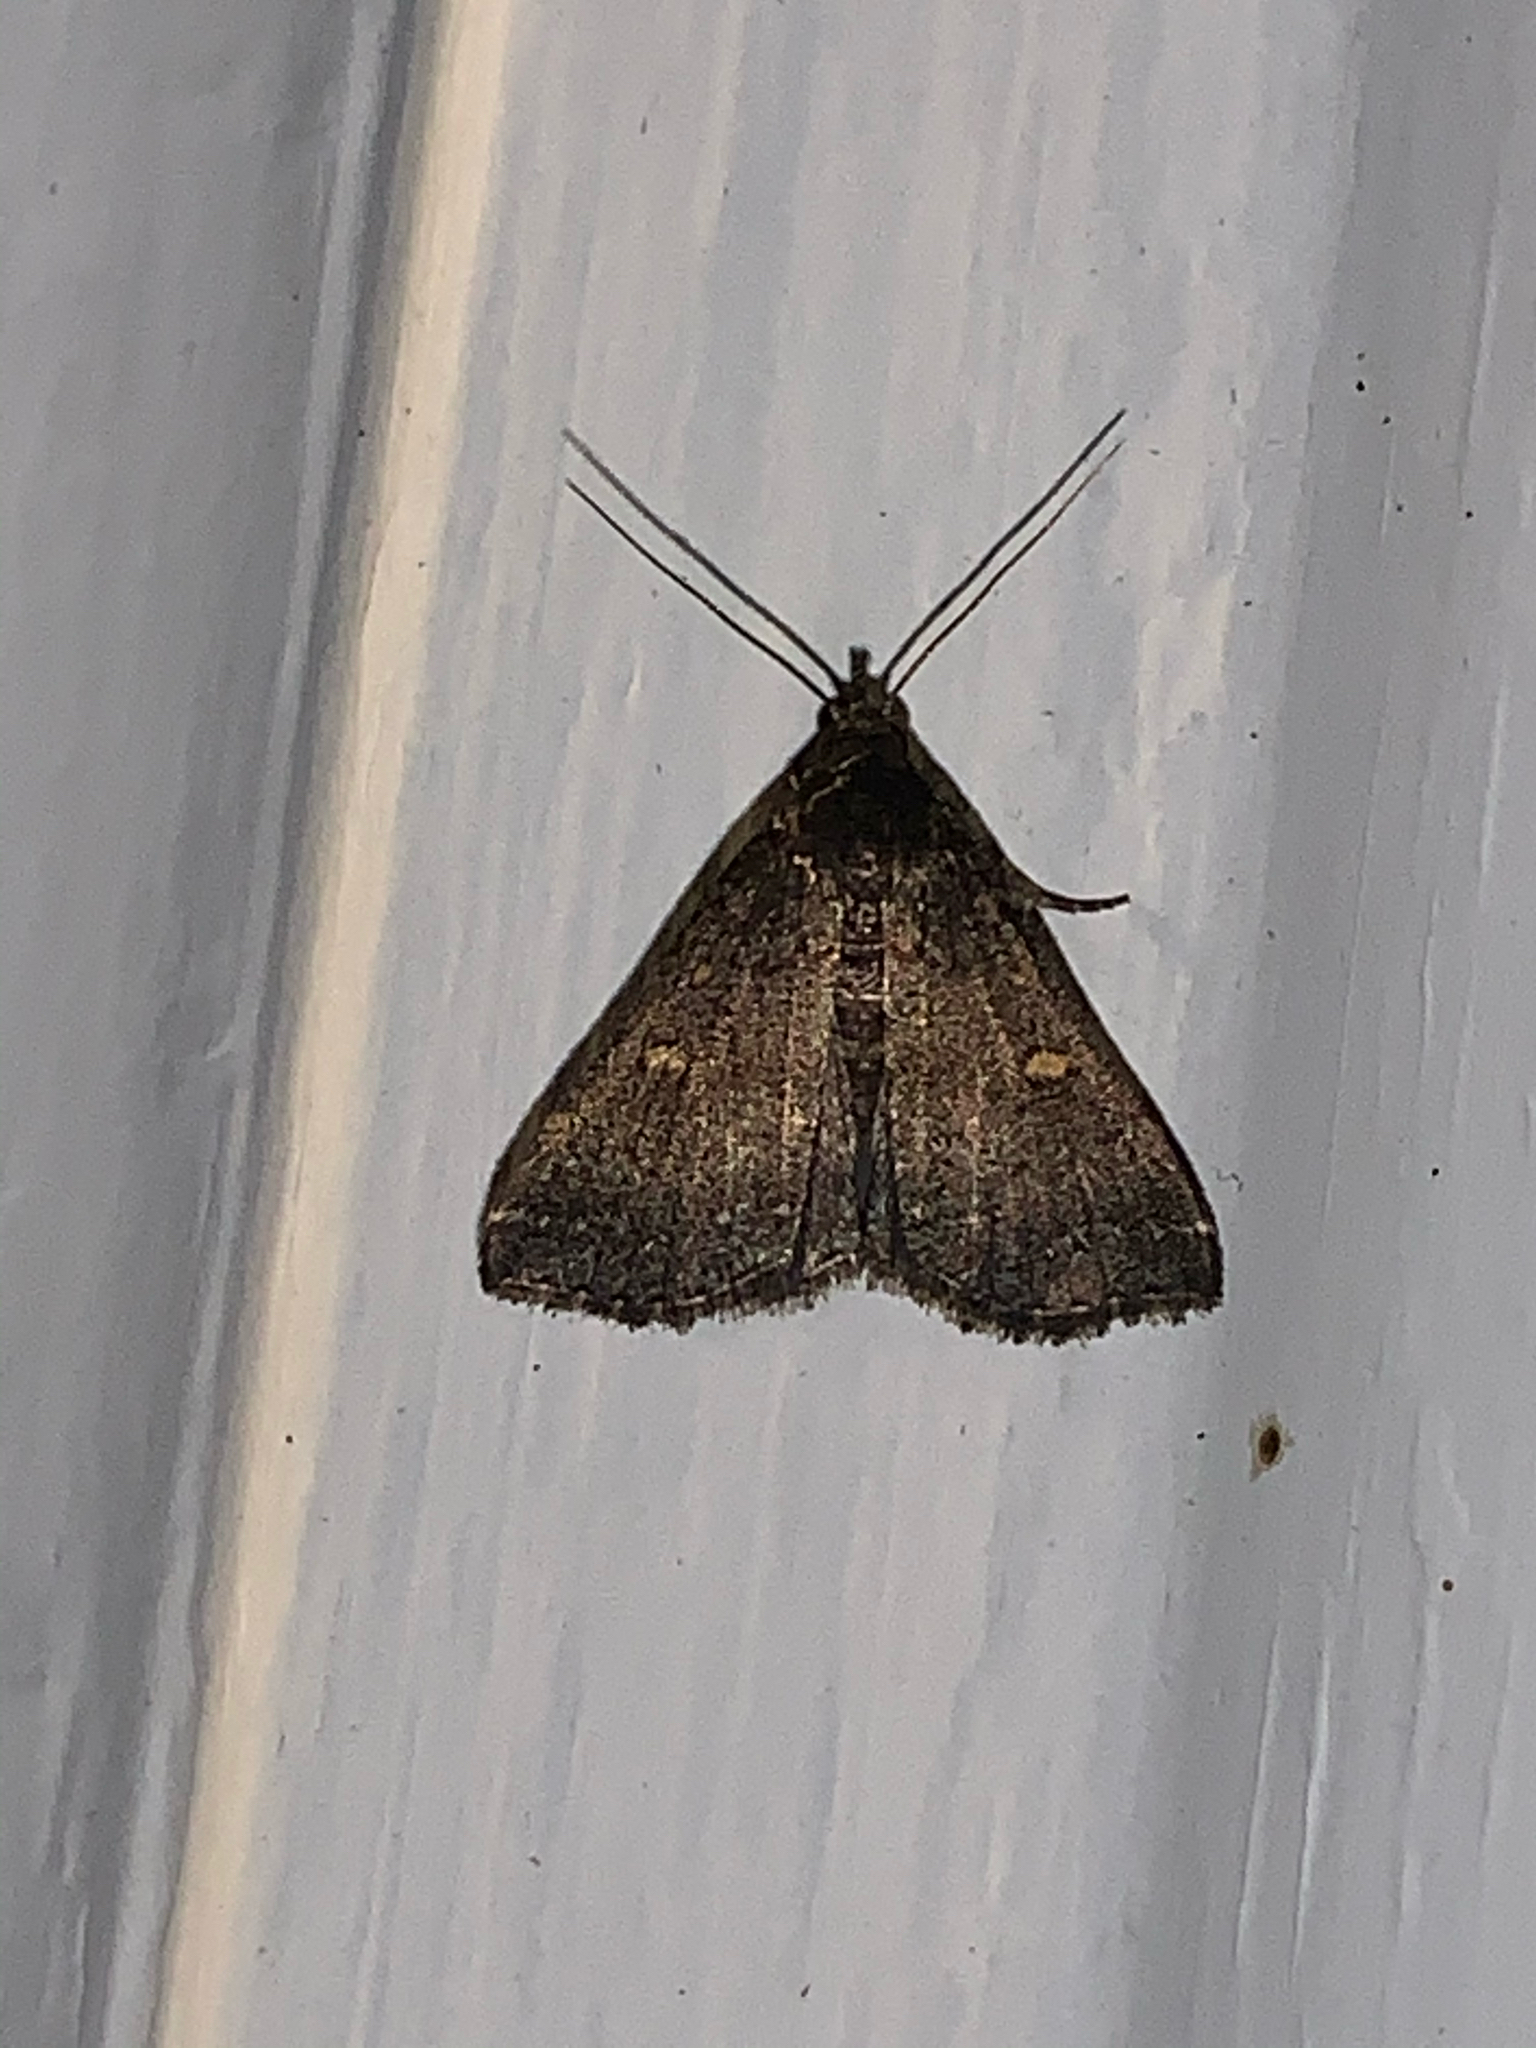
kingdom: Animalia
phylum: Arthropoda
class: Insecta
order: Lepidoptera
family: Erebidae
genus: Tetanolita
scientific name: Tetanolita mynesalis
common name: Smoky tetanolita moth
